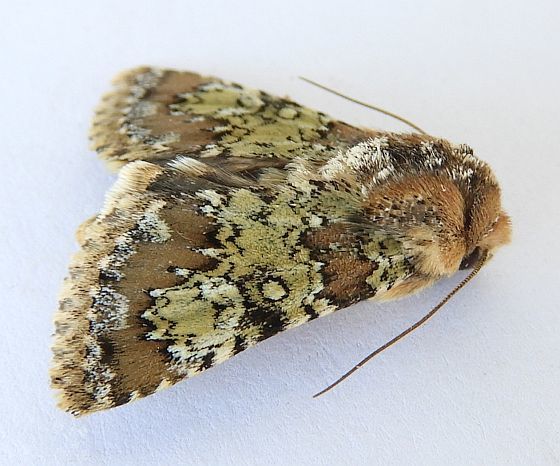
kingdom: Animalia
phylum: Arthropoda
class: Insecta
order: Lepidoptera
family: Noctuidae
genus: Hemibryomima
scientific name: Hemibryomima chryselectra
